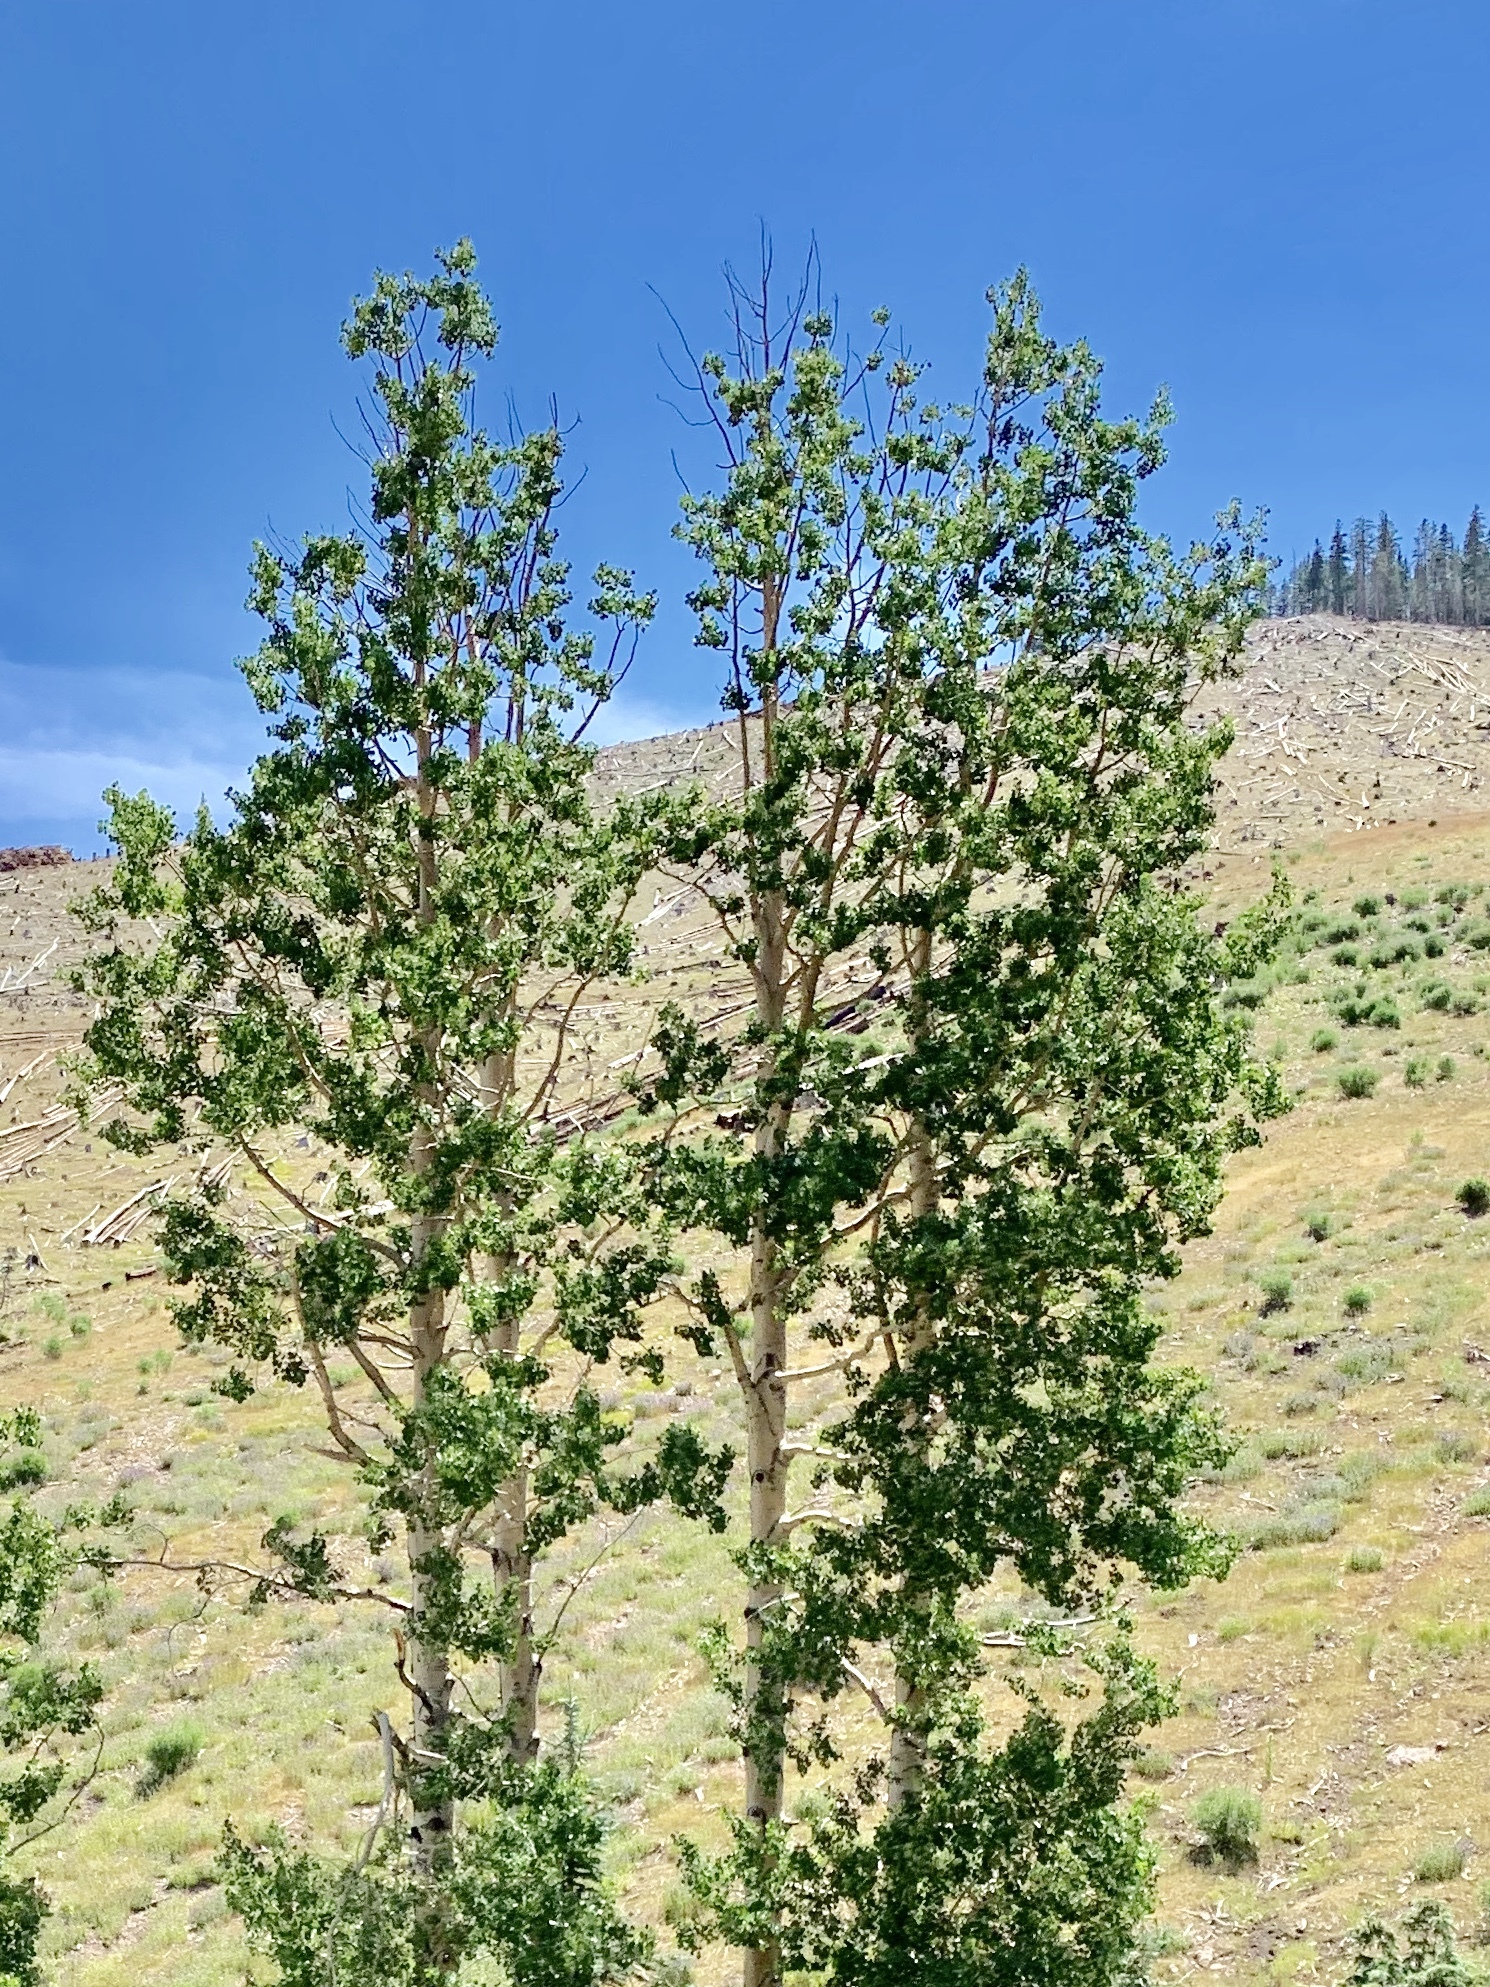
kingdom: Plantae
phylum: Tracheophyta
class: Magnoliopsida
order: Malpighiales
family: Salicaceae
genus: Populus
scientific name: Populus tremuloides
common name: Quaking aspen
